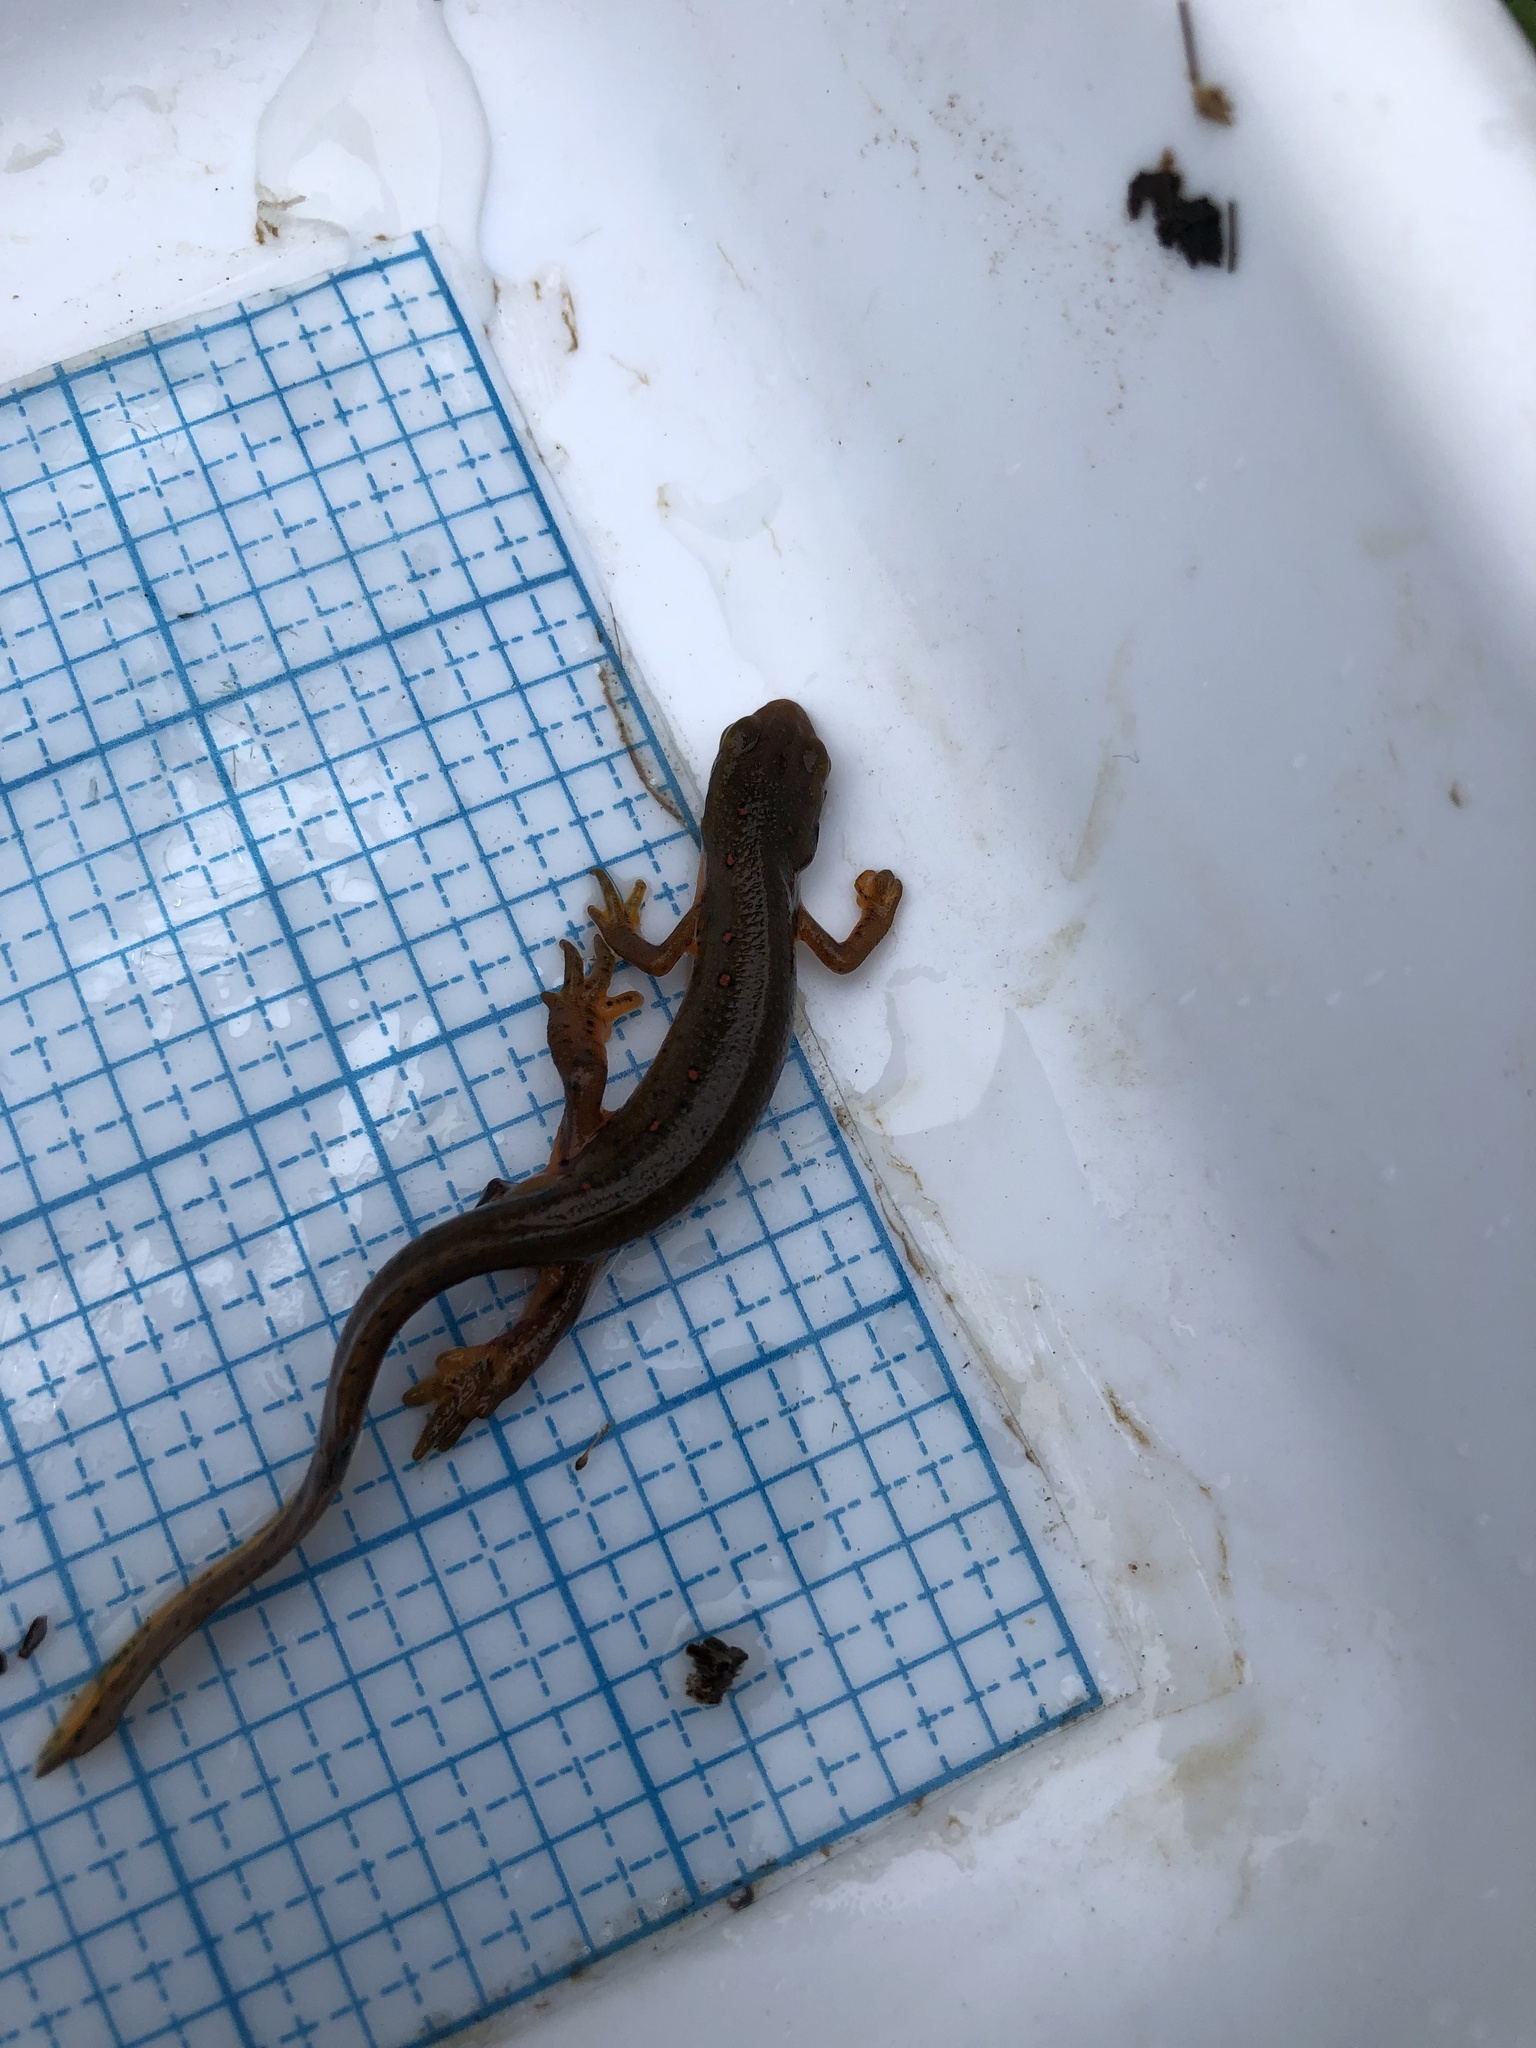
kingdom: Animalia
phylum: Chordata
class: Amphibia
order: Caudata
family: Salamandridae
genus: Notophthalmus
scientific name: Notophthalmus viridescens
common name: Eastern newt
